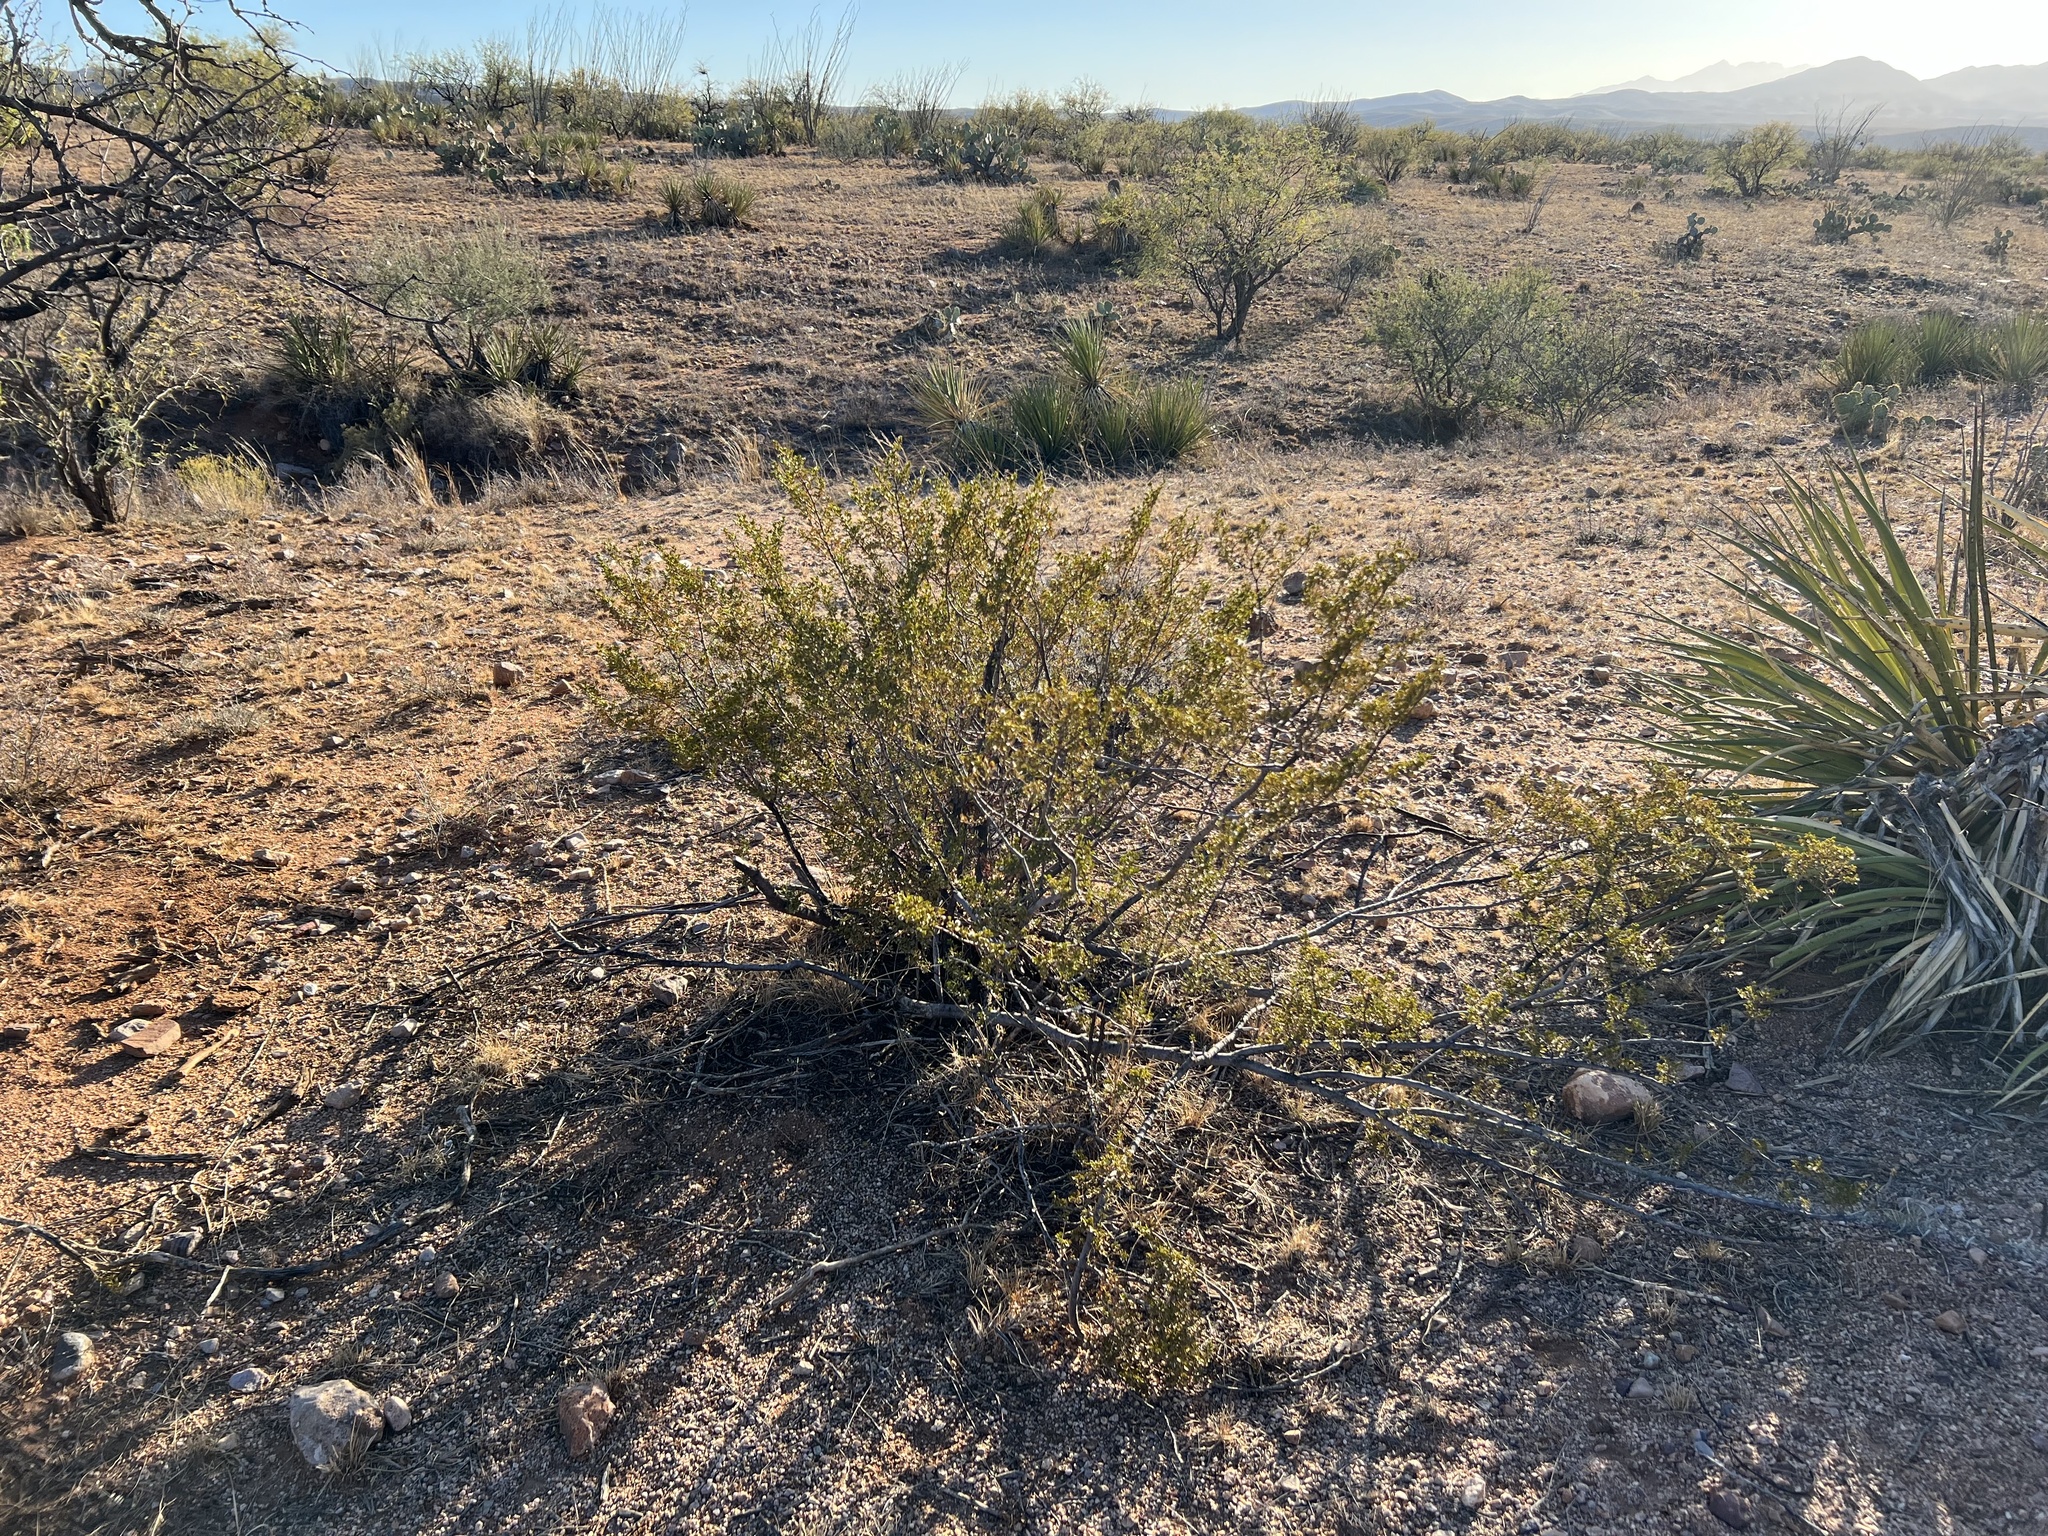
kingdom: Plantae
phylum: Tracheophyta
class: Magnoliopsida
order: Zygophyllales
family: Zygophyllaceae
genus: Larrea
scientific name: Larrea tridentata
